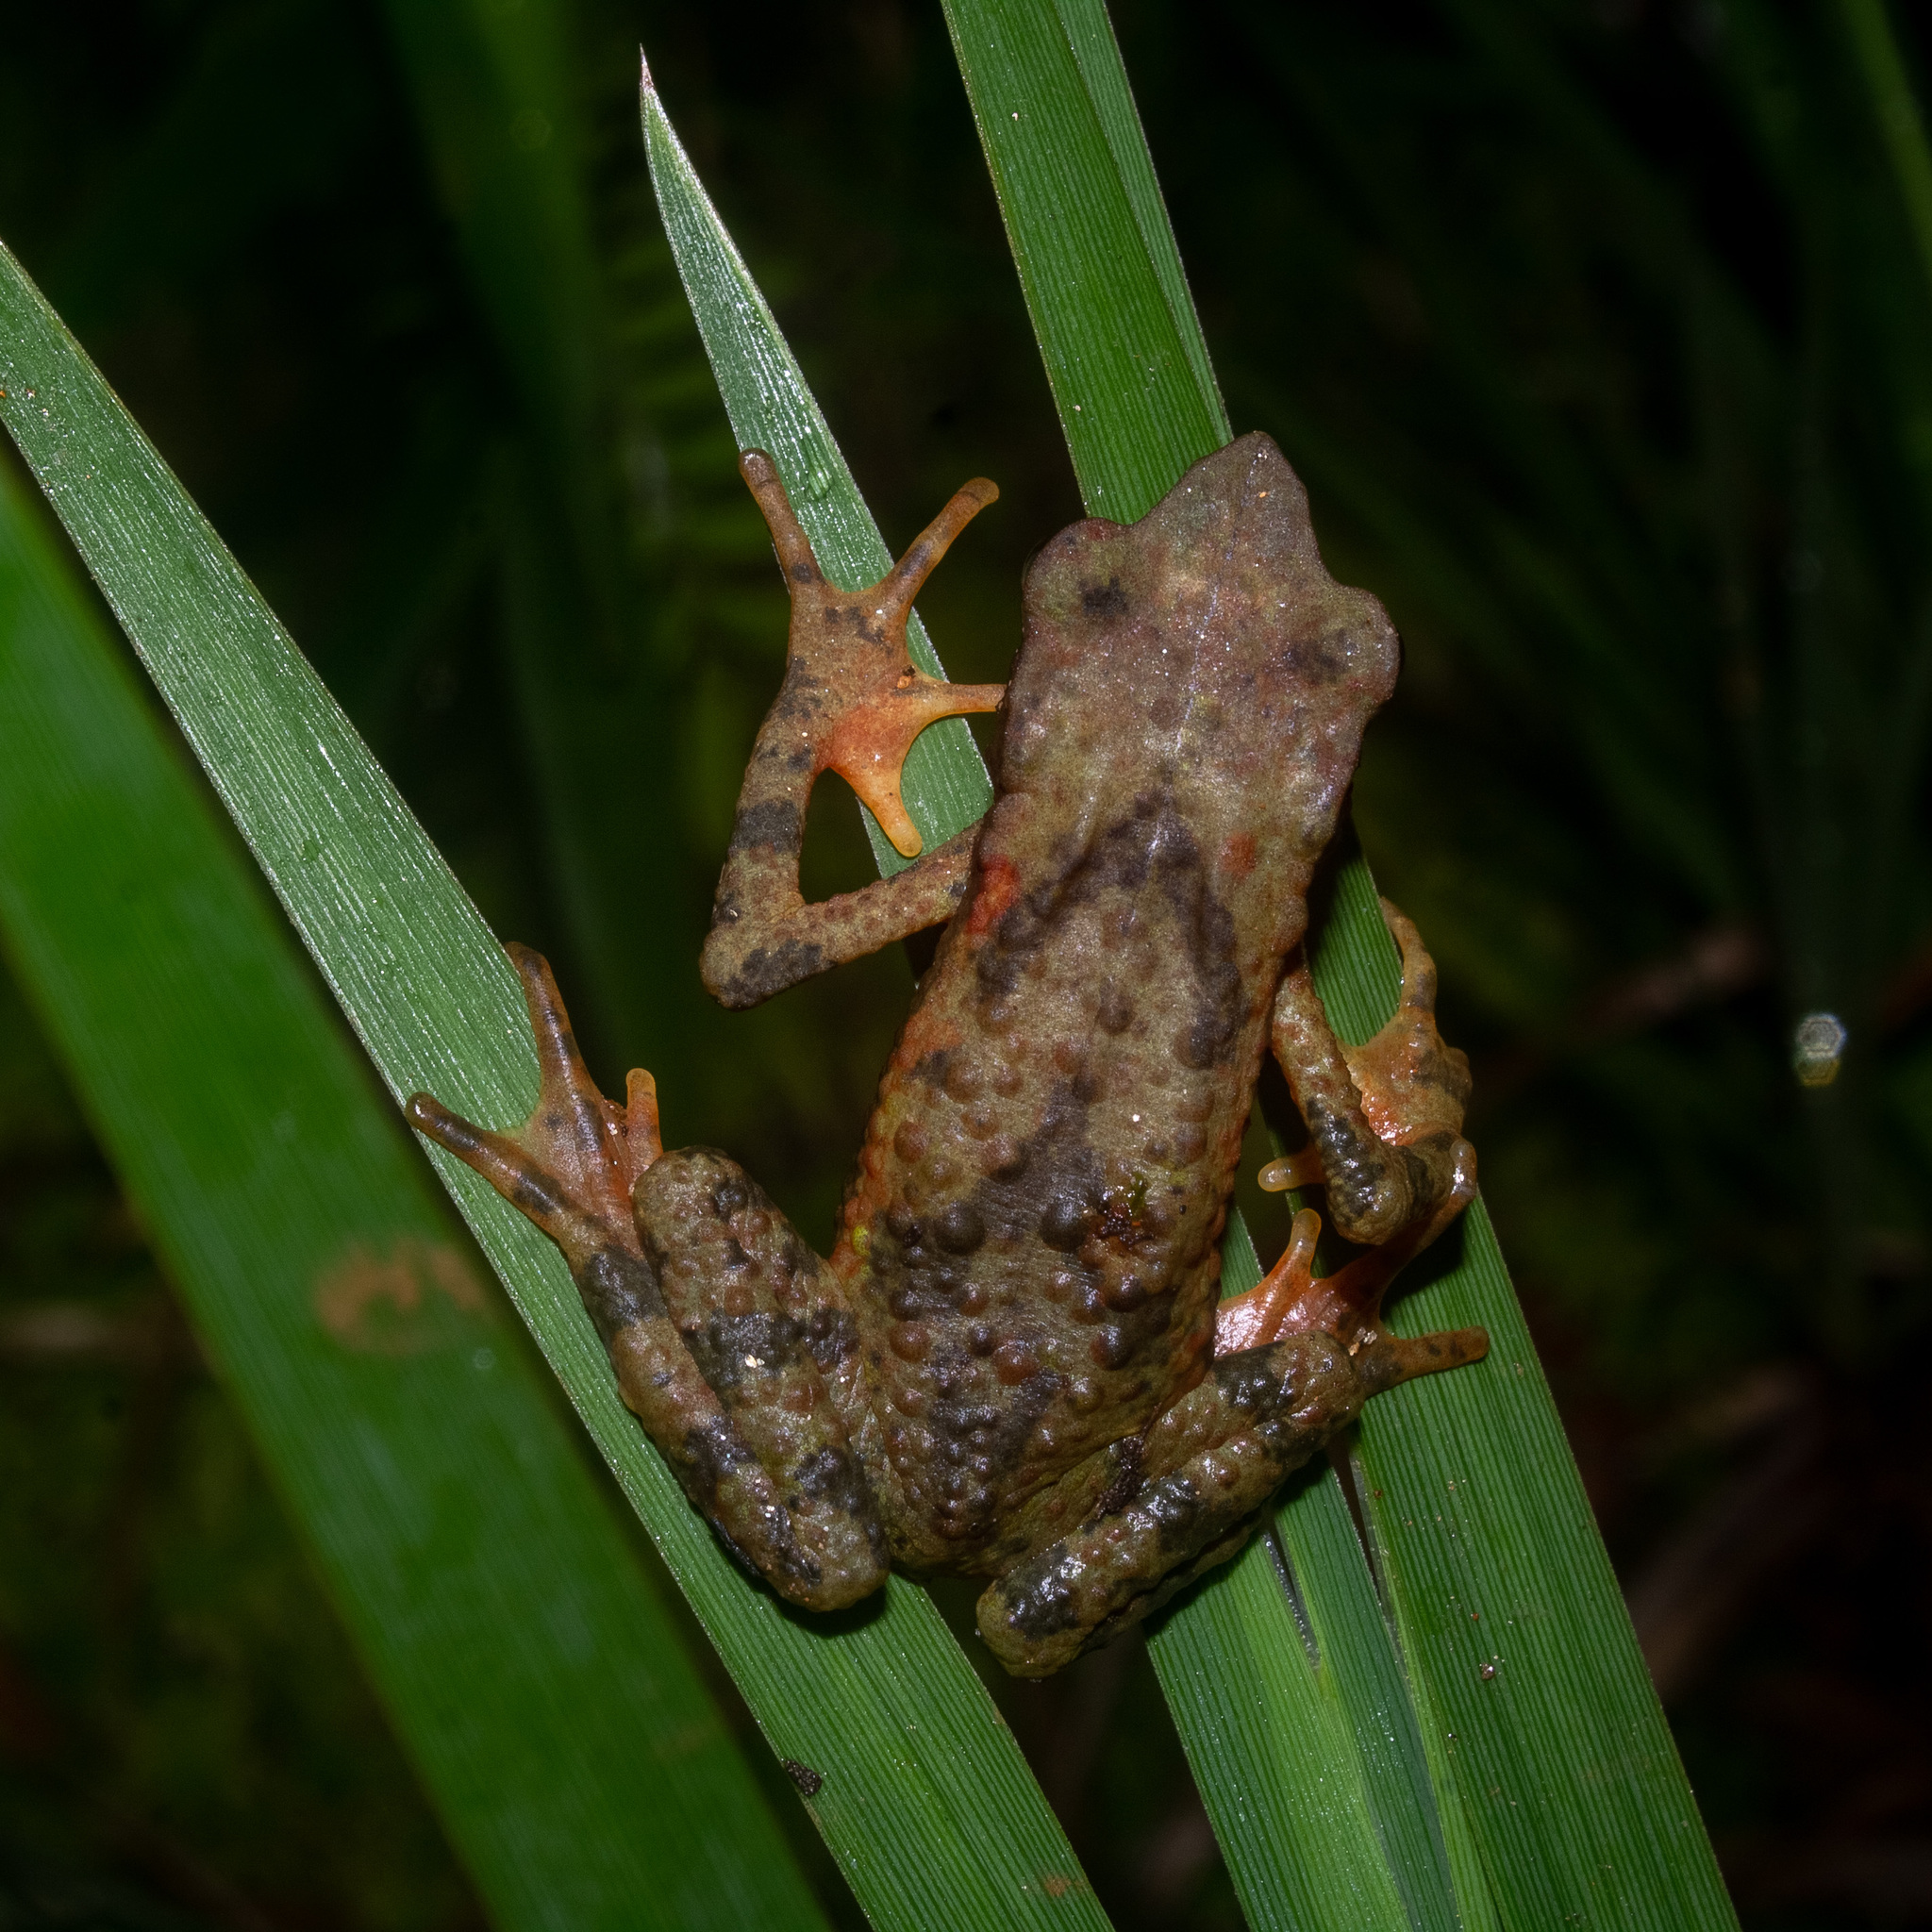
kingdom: Animalia
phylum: Chordata
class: Amphibia
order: Anura
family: Bufonidae
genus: Atelopus
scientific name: Atelopus laetissimus
